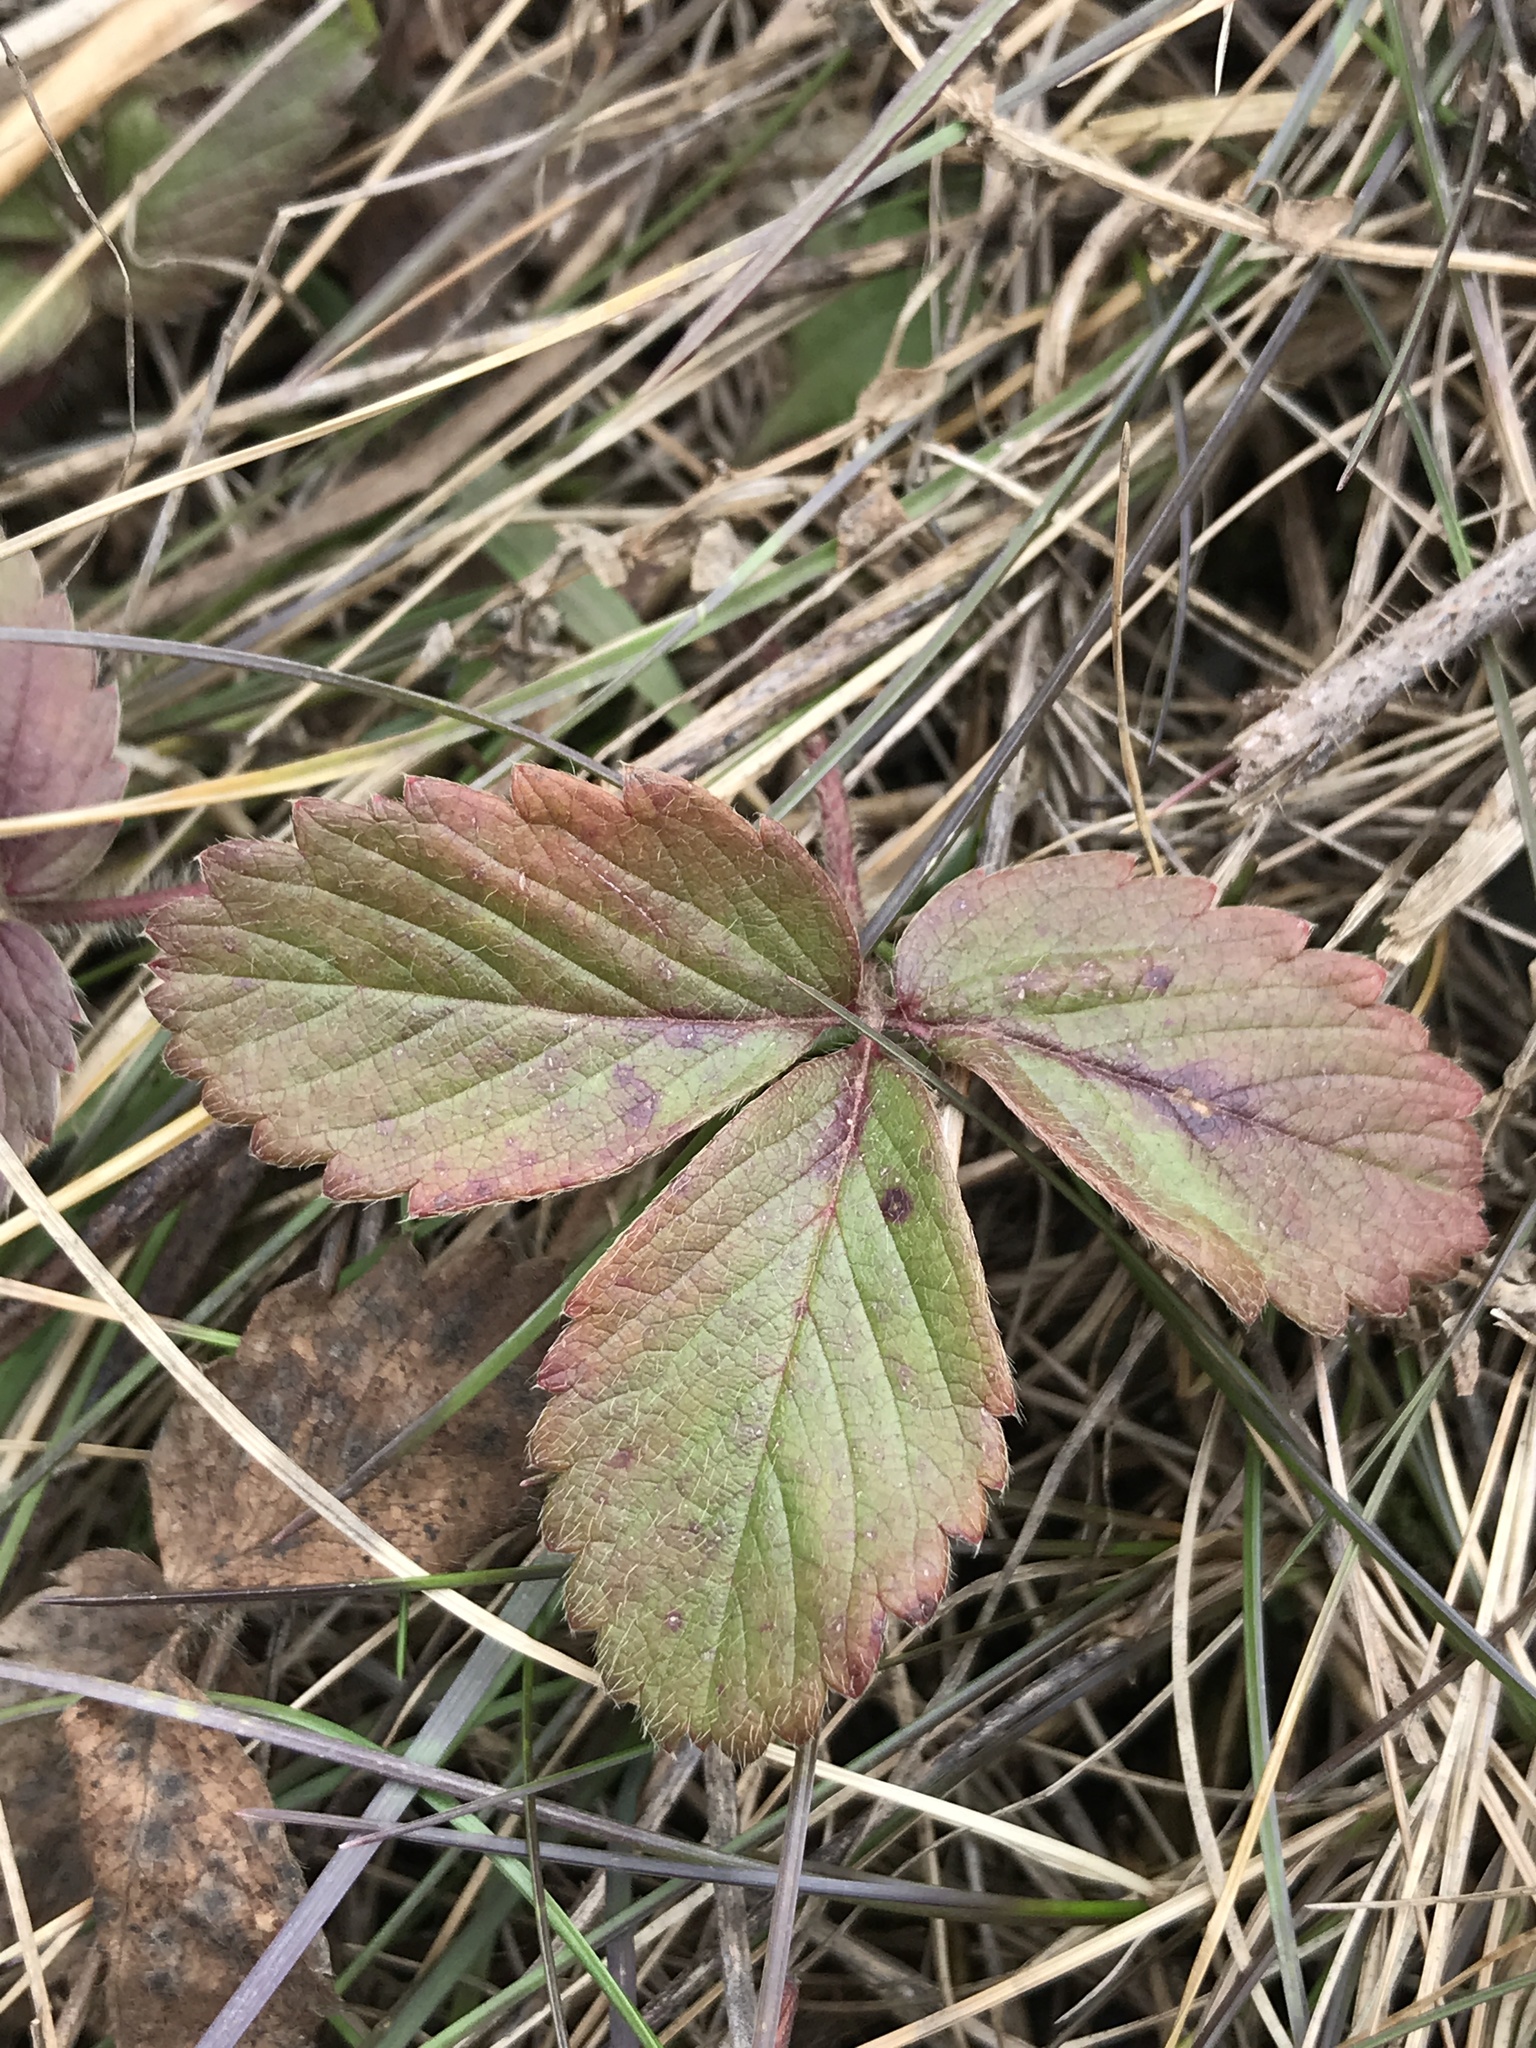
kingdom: Plantae
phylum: Tracheophyta
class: Magnoliopsida
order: Rosales
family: Rosaceae
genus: Fragaria
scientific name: Fragaria virginiana
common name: Thickleaved wild strawberry
